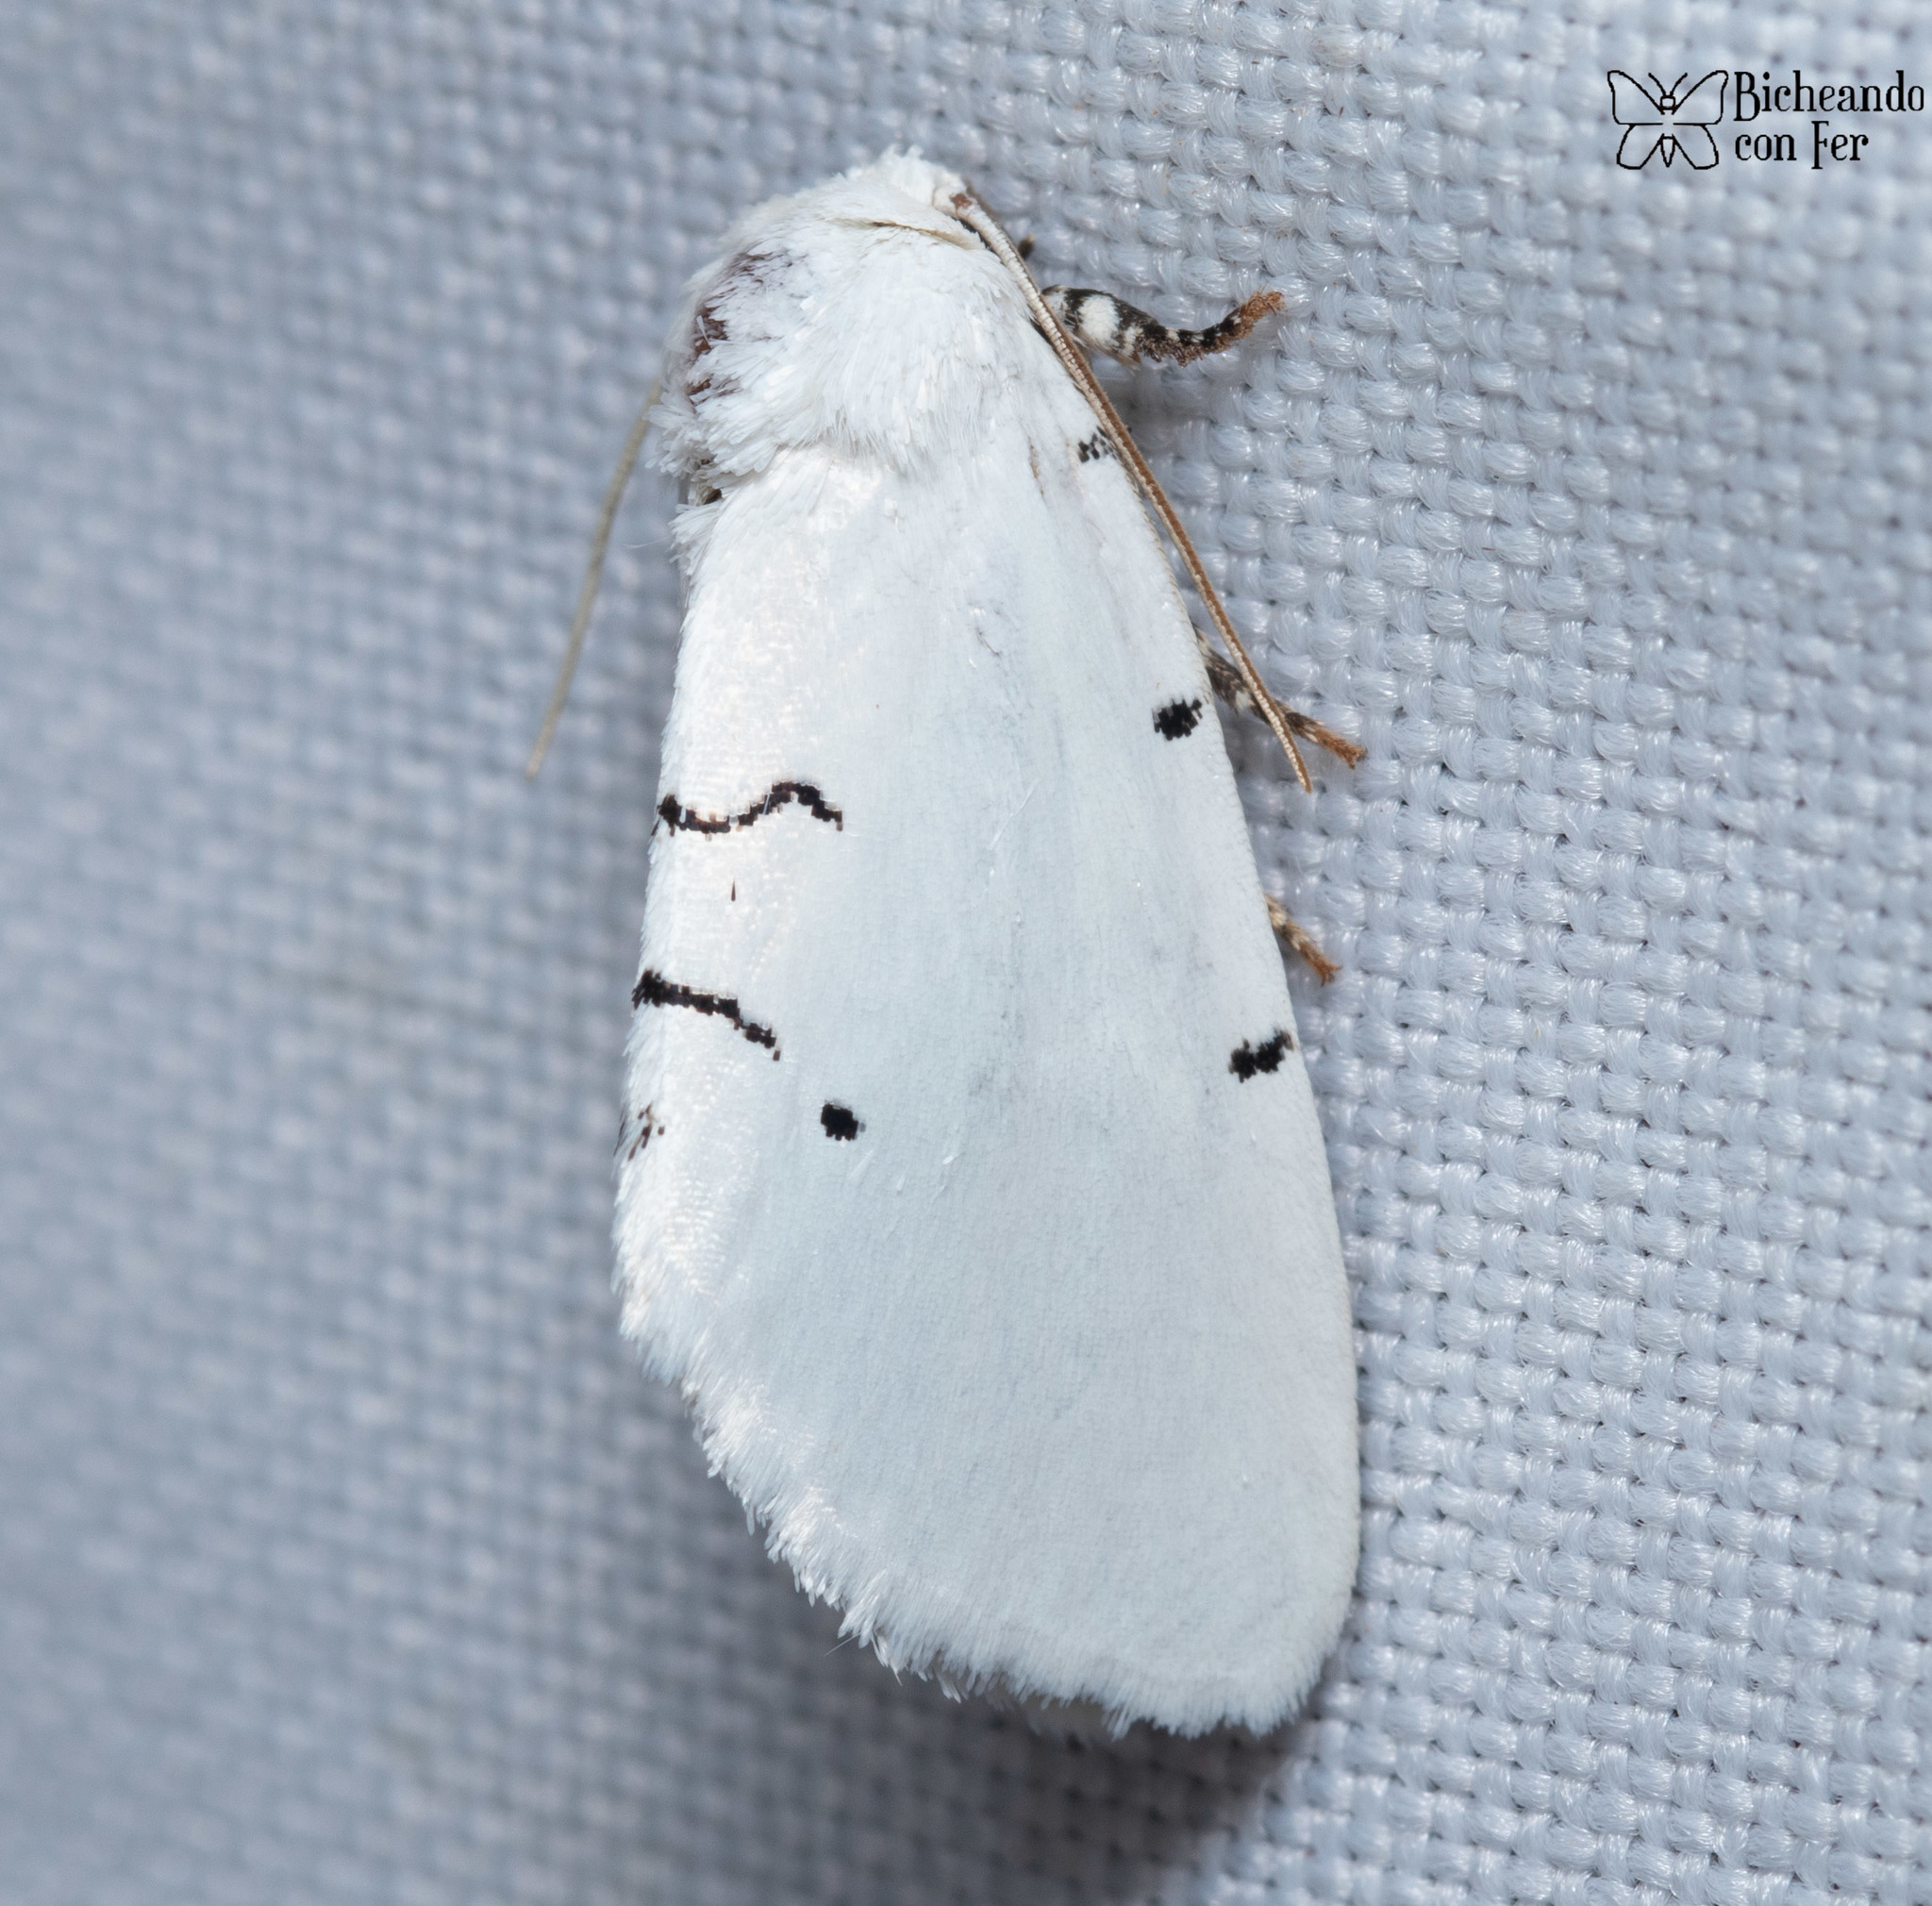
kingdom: Animalia
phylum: Arthropoda
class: Insecta
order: Lepidoptera
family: Noctuidae
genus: Hemioslaria
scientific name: Hemioslaria pima
